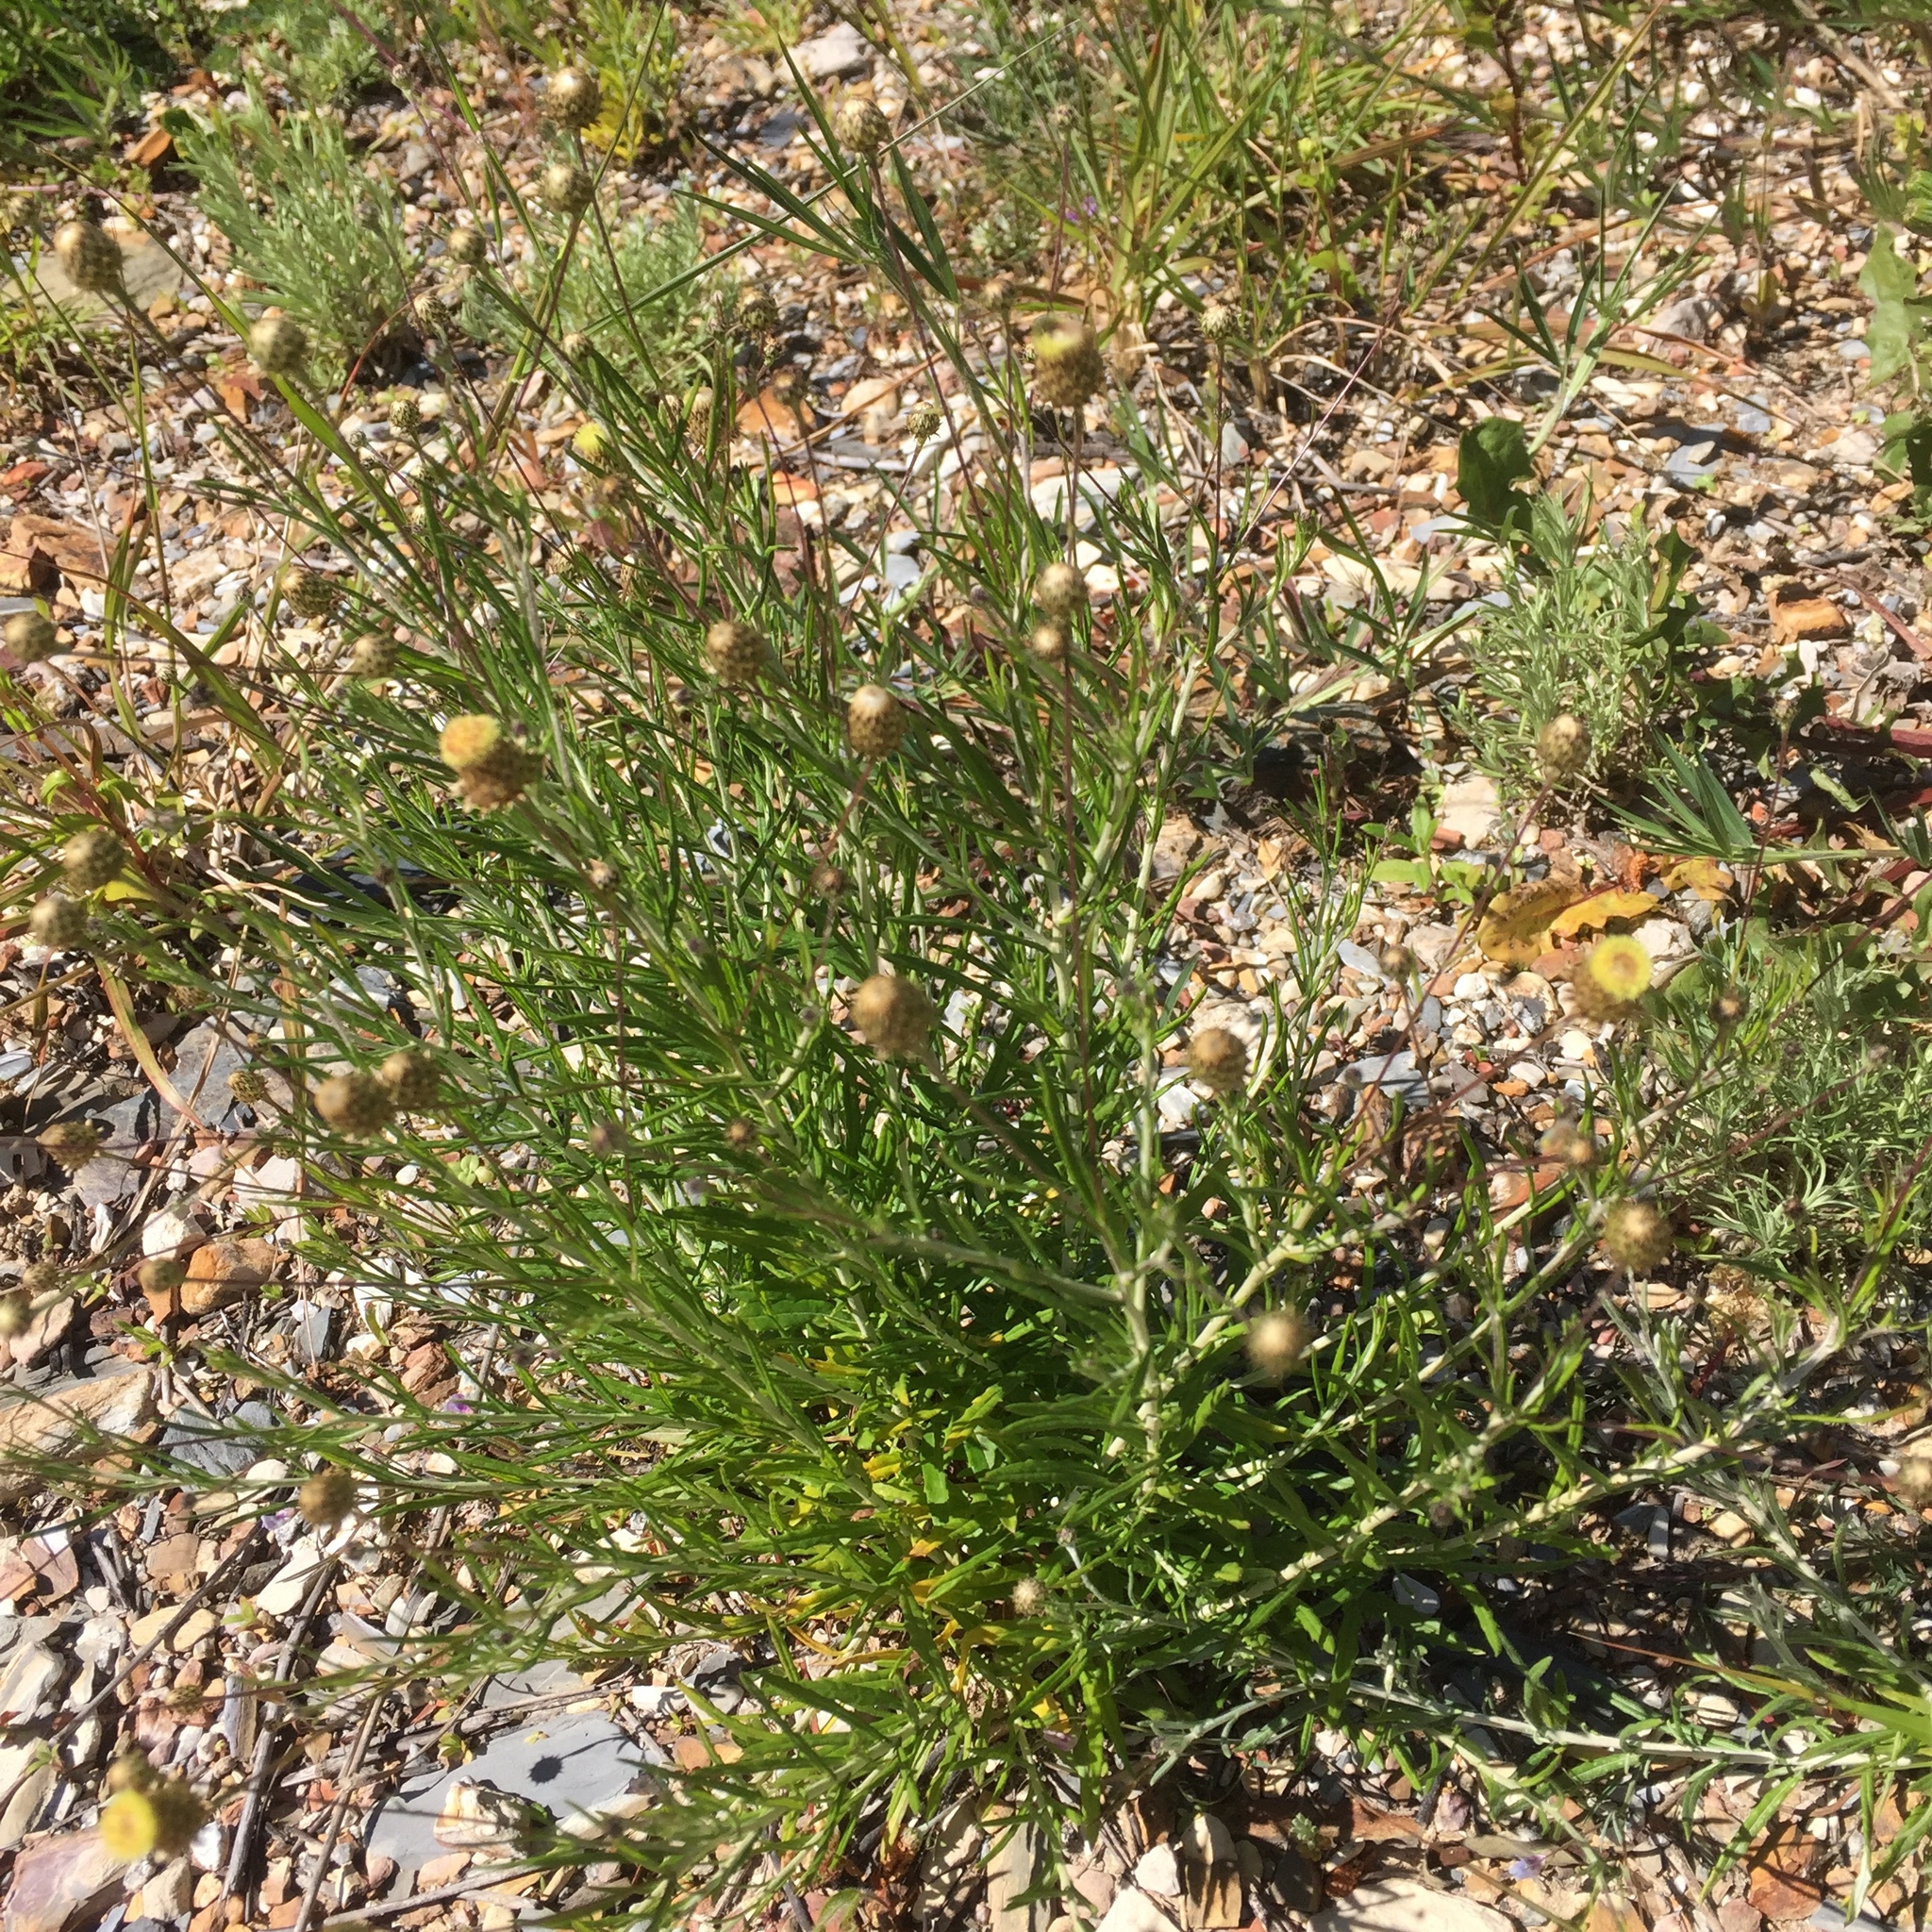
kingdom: Plantae
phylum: Tracheophyta
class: Magnoliopsida
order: Asterales
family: Asteraceae
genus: Phagnalon
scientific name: Phagnalon saxatile
